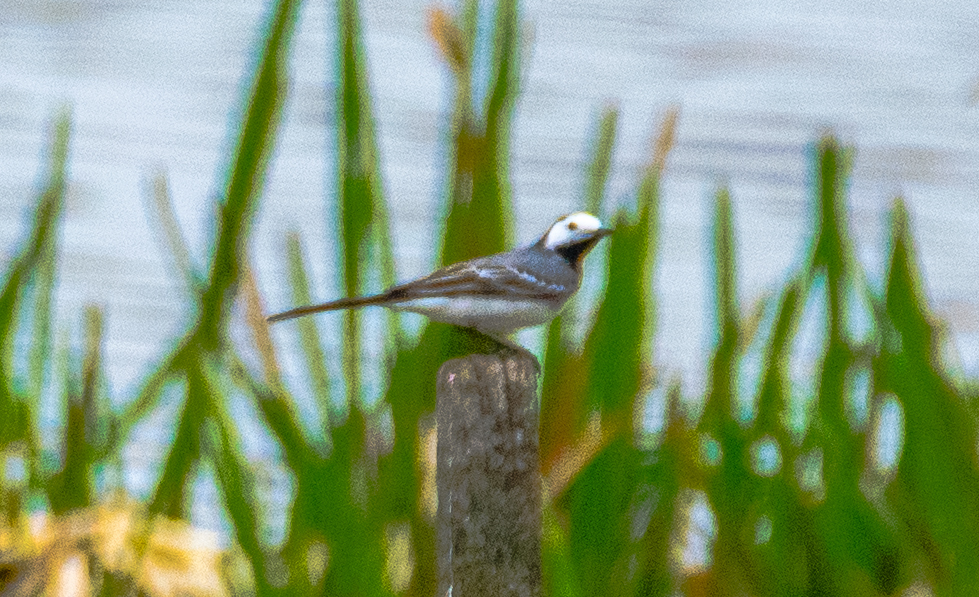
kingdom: Animalia
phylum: Chordata
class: Aves
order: Passeriformes
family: Motacillidae
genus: Motacilla
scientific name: Motacilla alba
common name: White wagtail
